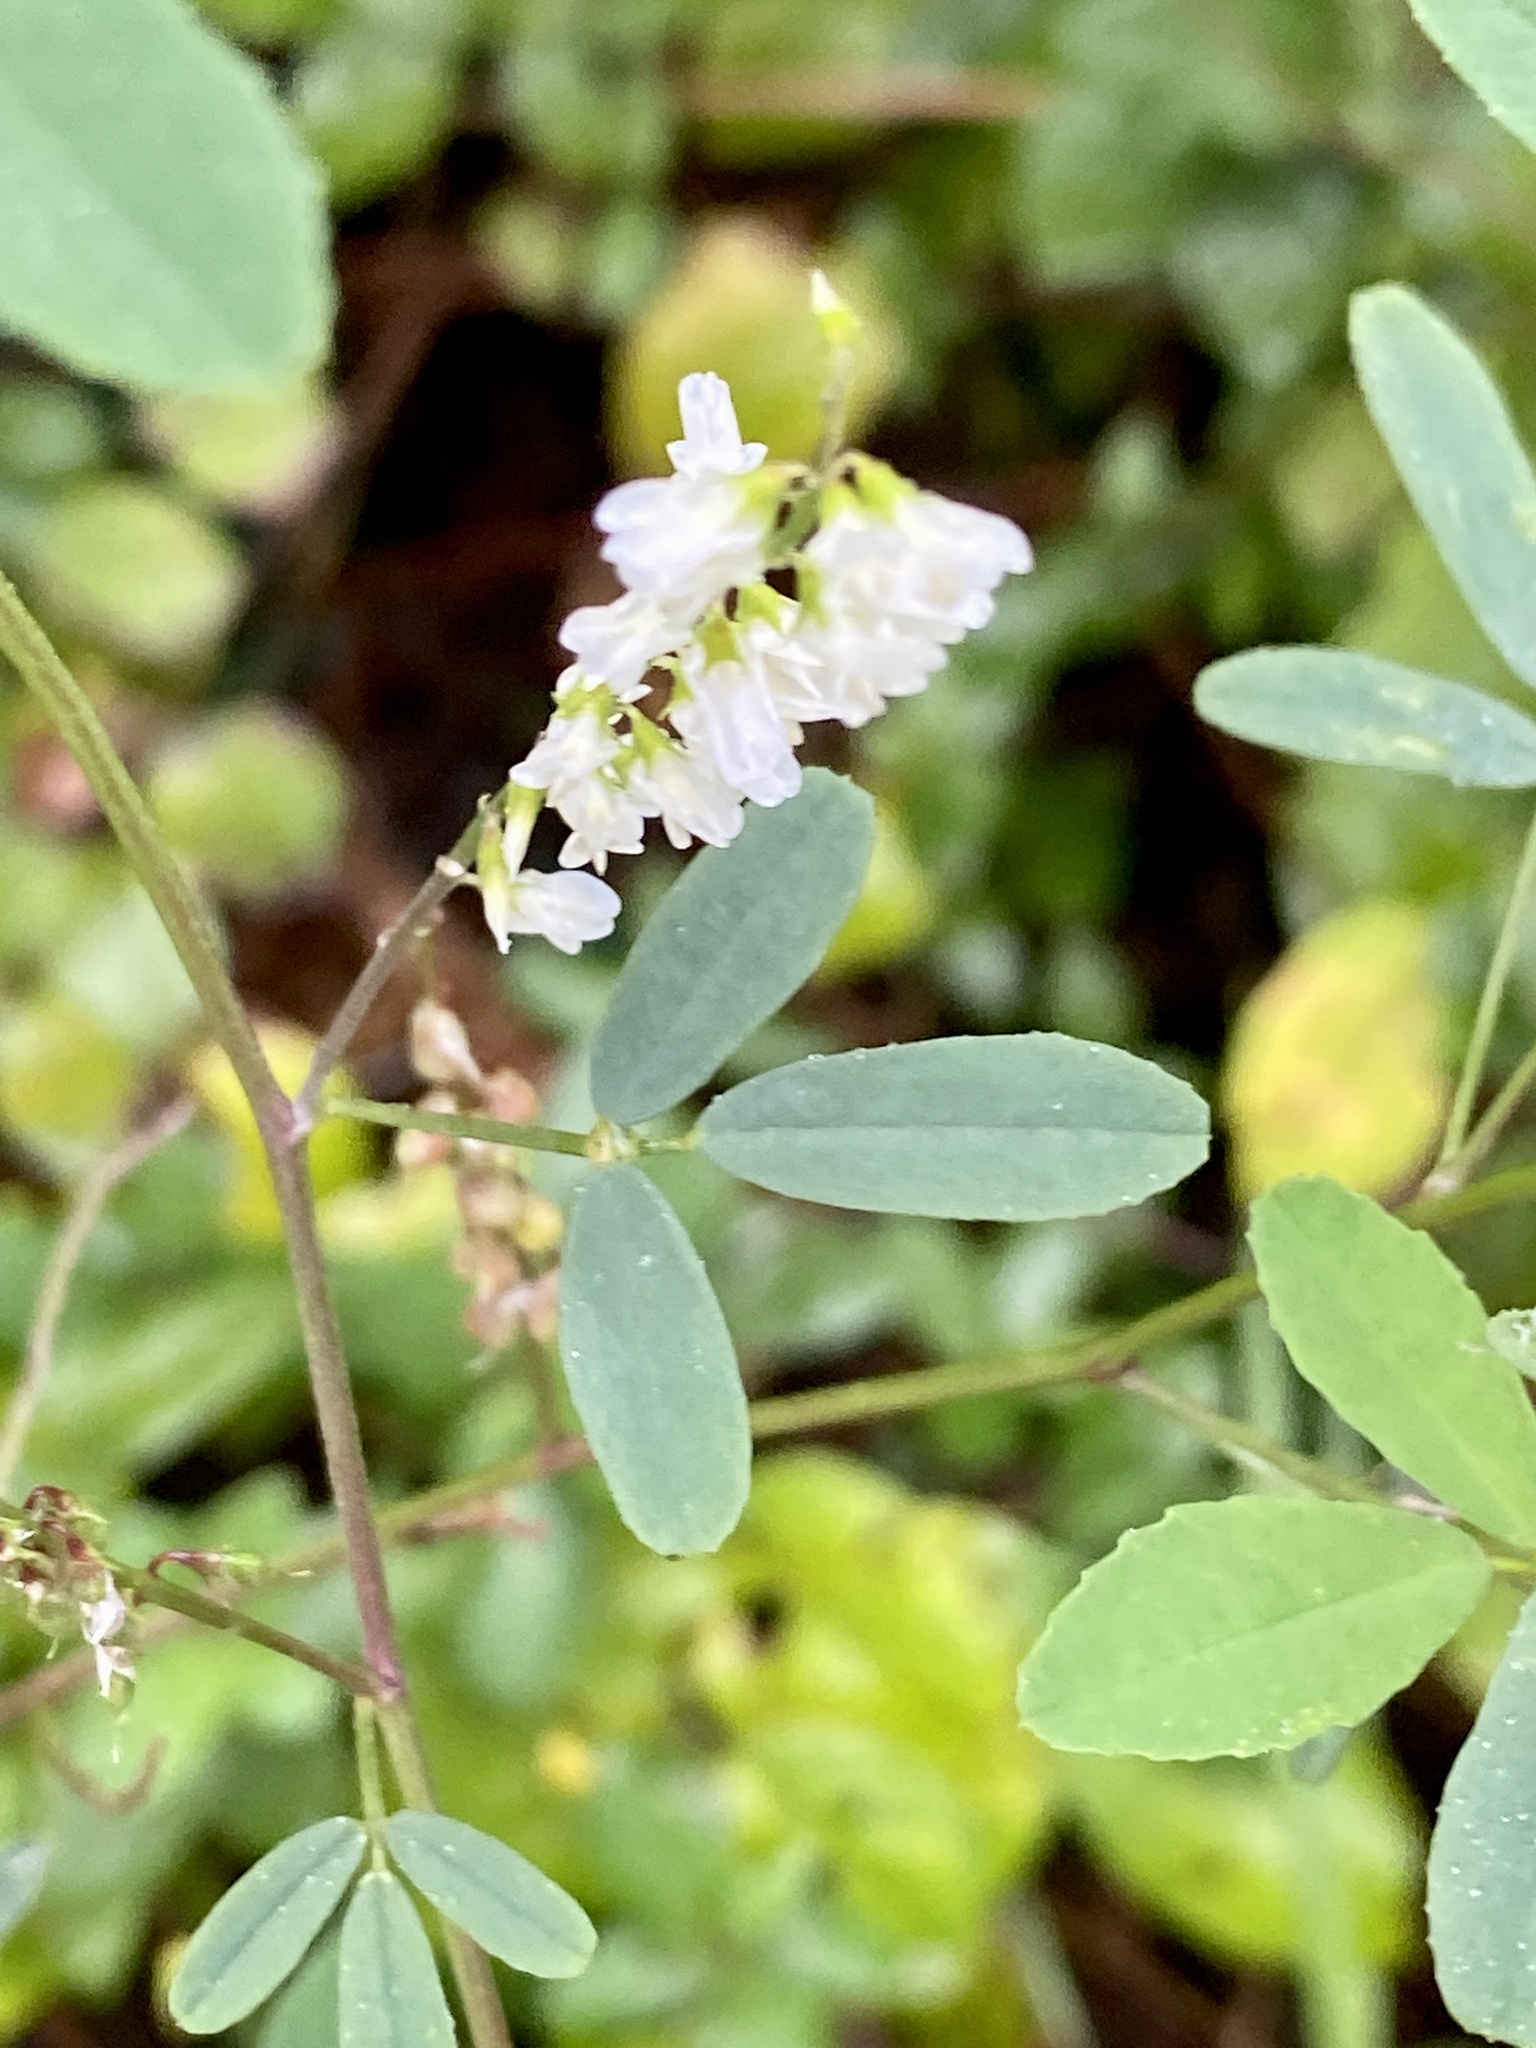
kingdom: Plantae
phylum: Tracheophyta
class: Magnoliopsida
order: Fabales
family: Fabaceae
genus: Melilotus
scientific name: Melilotus albus
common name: White melilot
